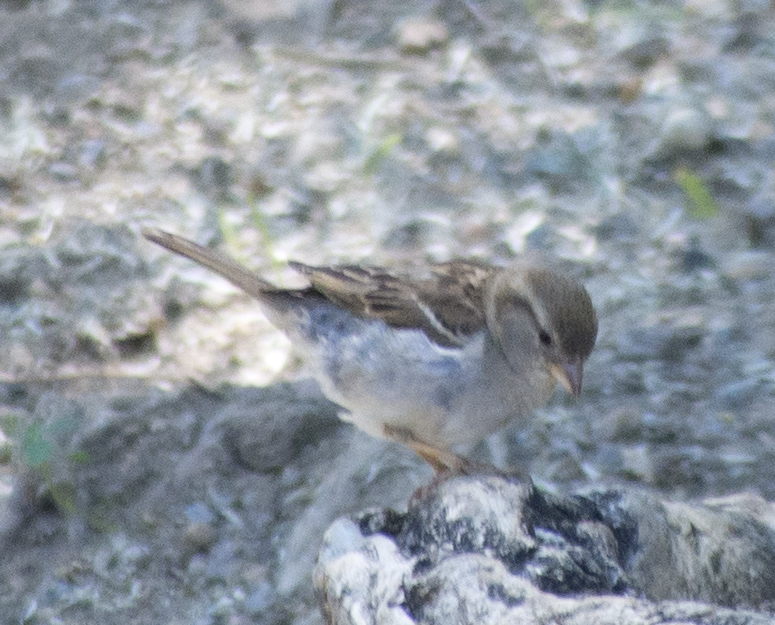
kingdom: Animalia
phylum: Chordata
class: Aves
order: Passeriformes
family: Passeridae
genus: Passer
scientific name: Passer domesticus
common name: House sparrow
